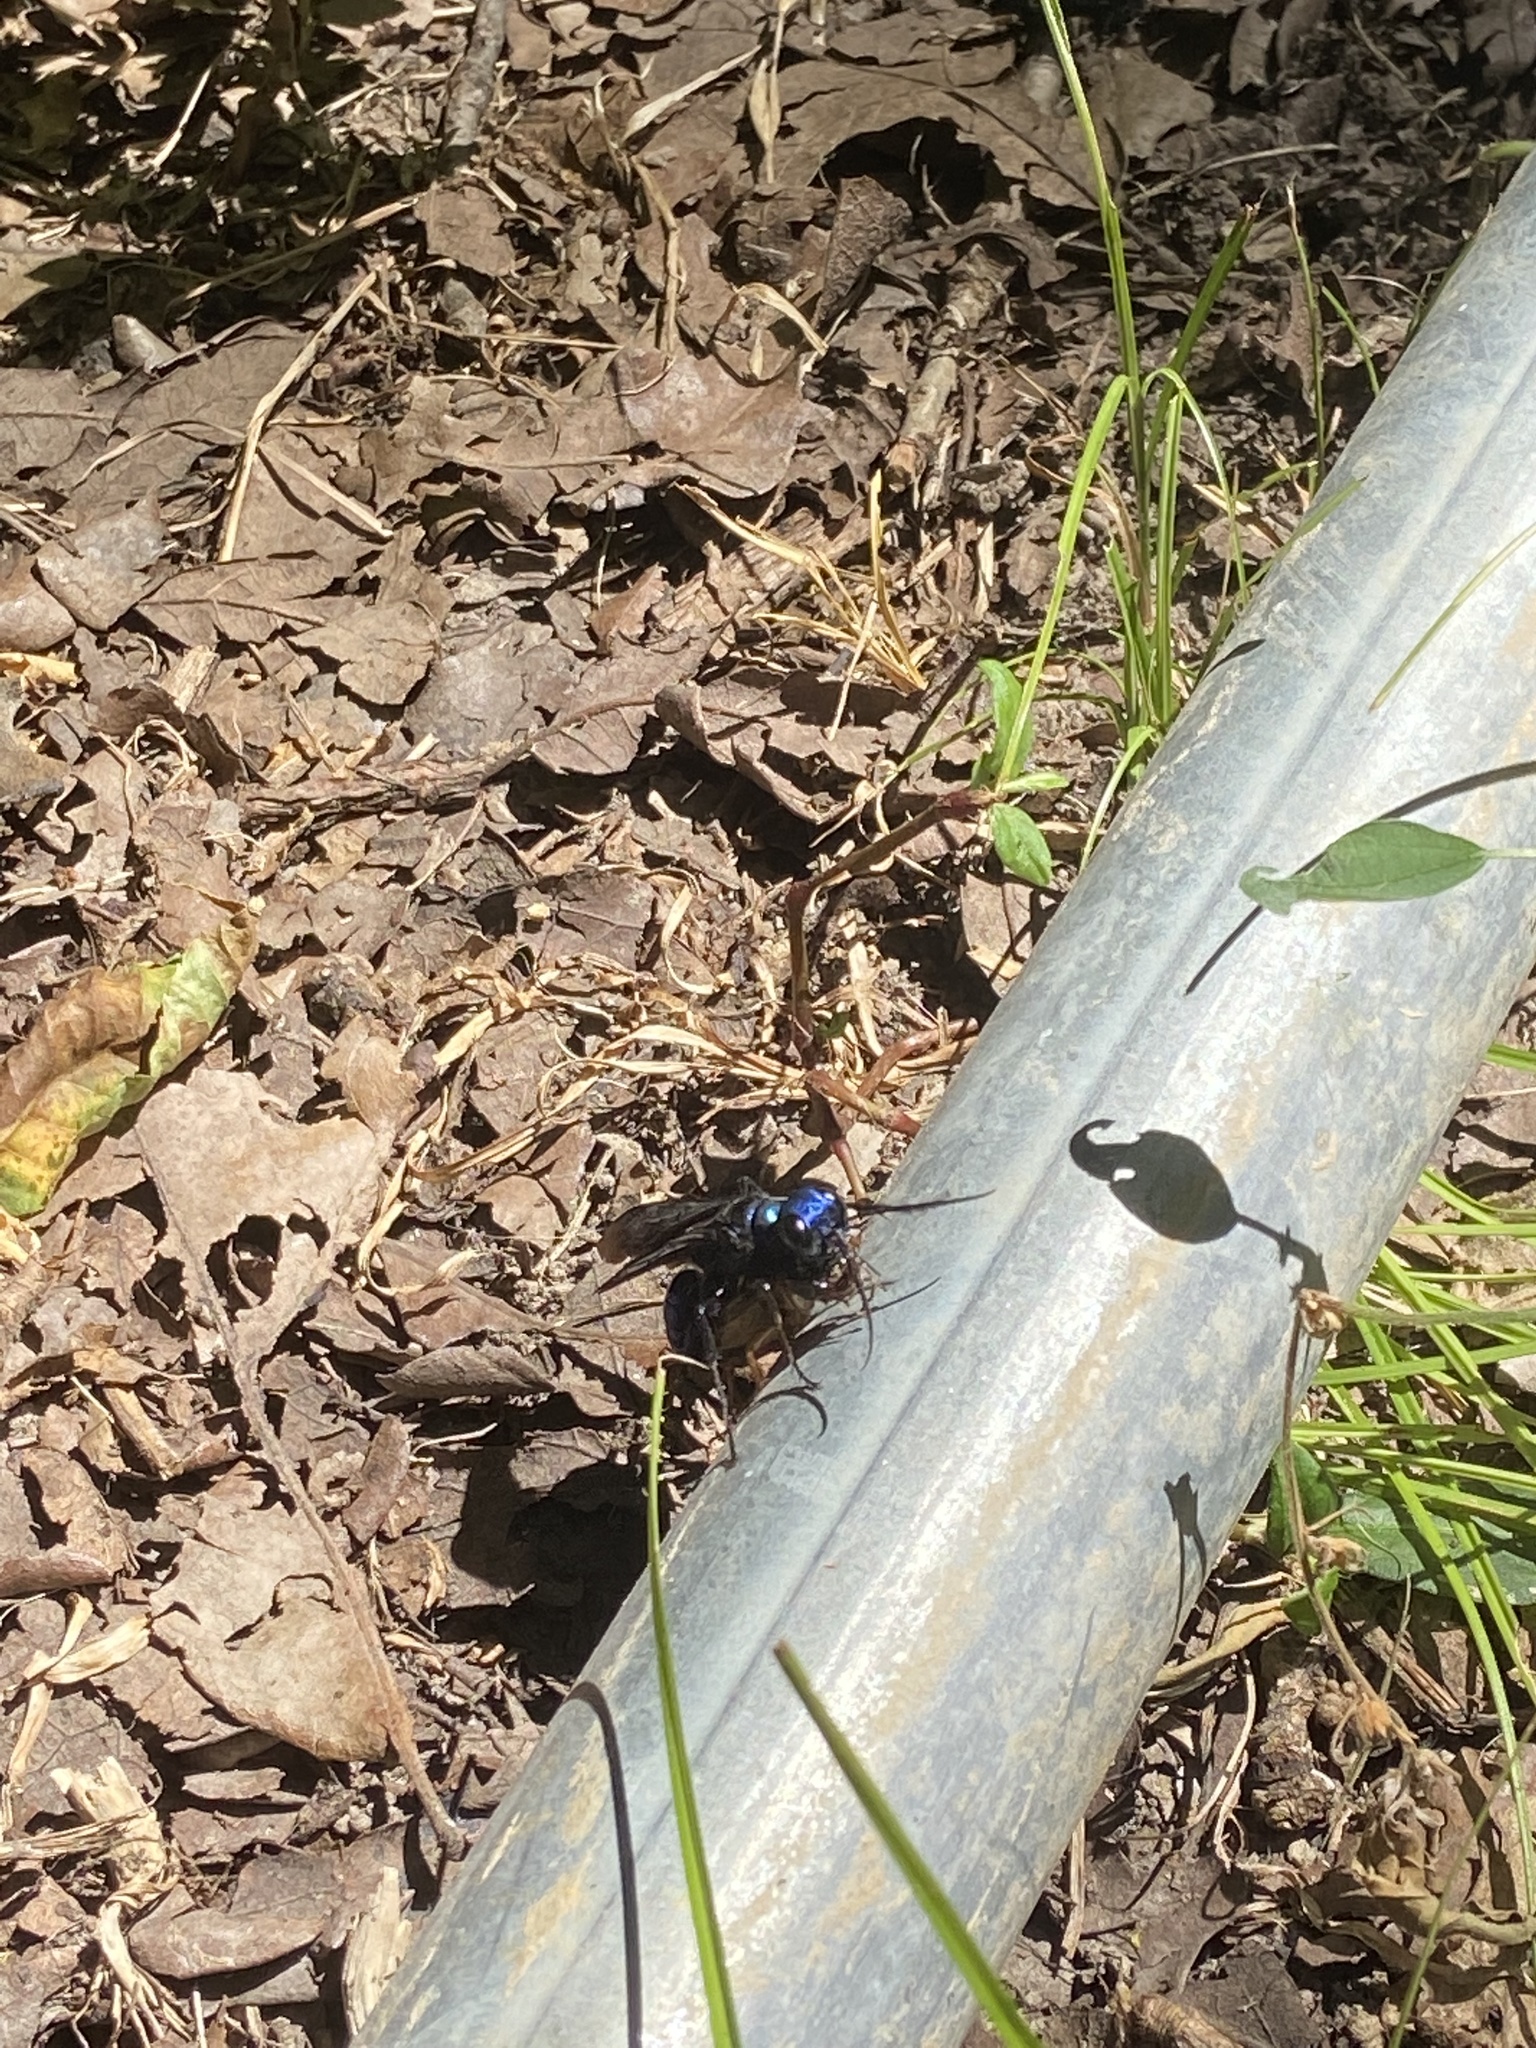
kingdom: Animalia
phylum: Arthropoda
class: Insecta
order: Hymenoptera
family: Sphecidae
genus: Chlorion
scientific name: Chlorion aerarium
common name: Steel-blue cricket hunter
